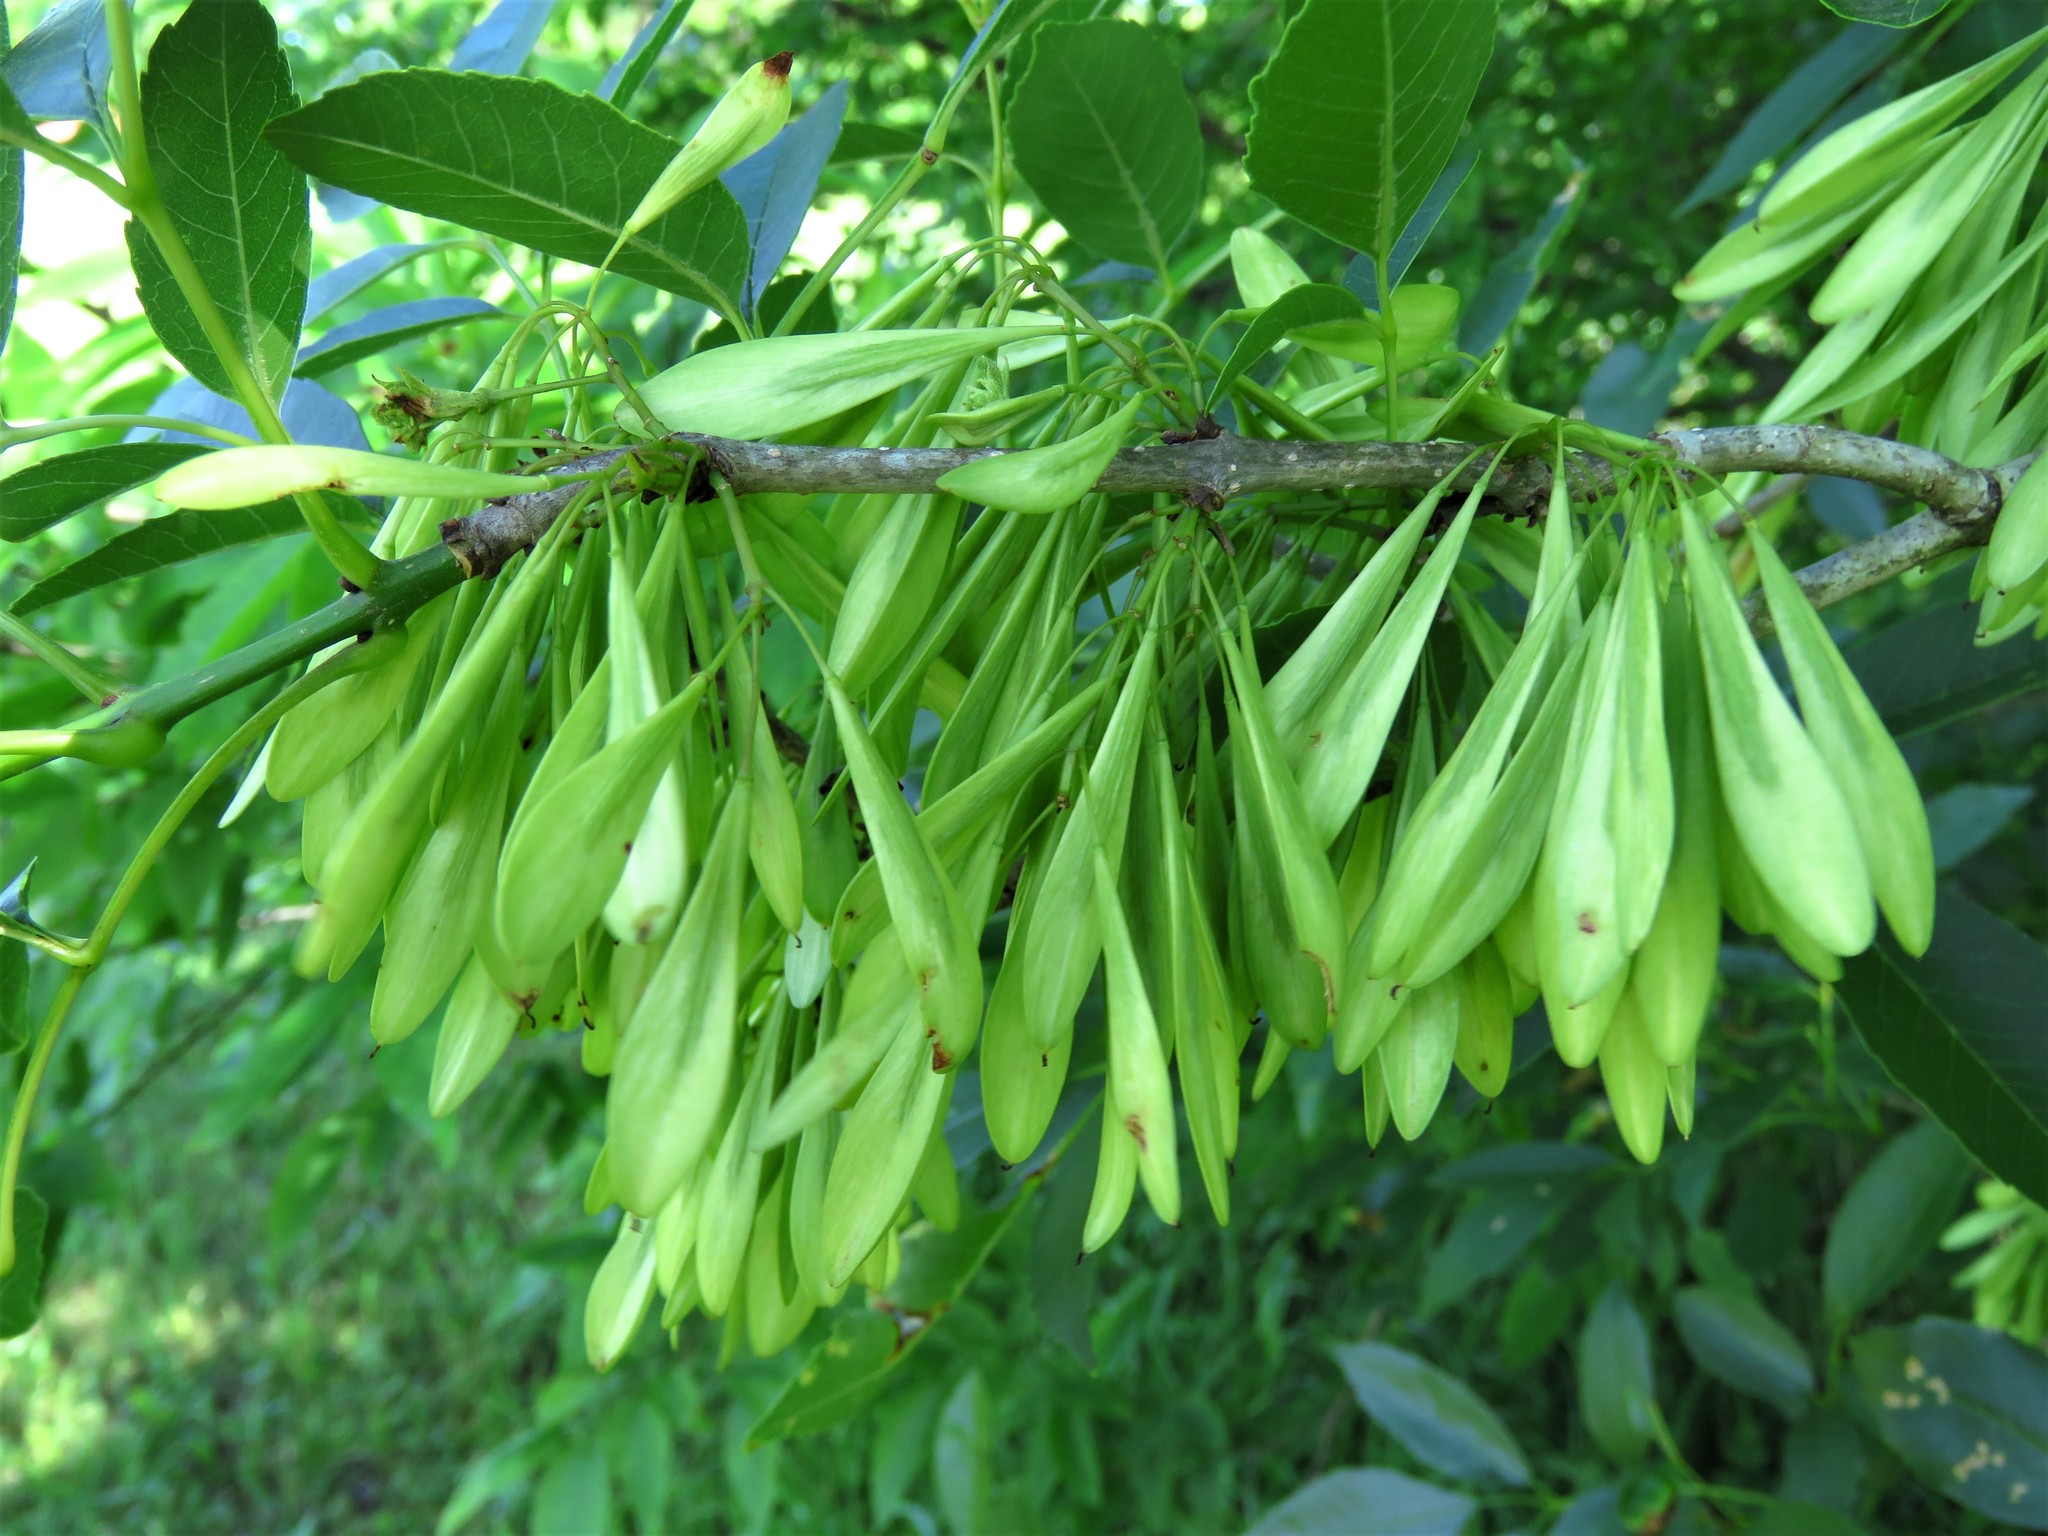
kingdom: Plantae
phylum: Tracheophyta
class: Magnoliopsida
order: Lamiales
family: Oleaceae
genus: Fraxinus
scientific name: Fraxinus pennsylvanica
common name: Green ash
